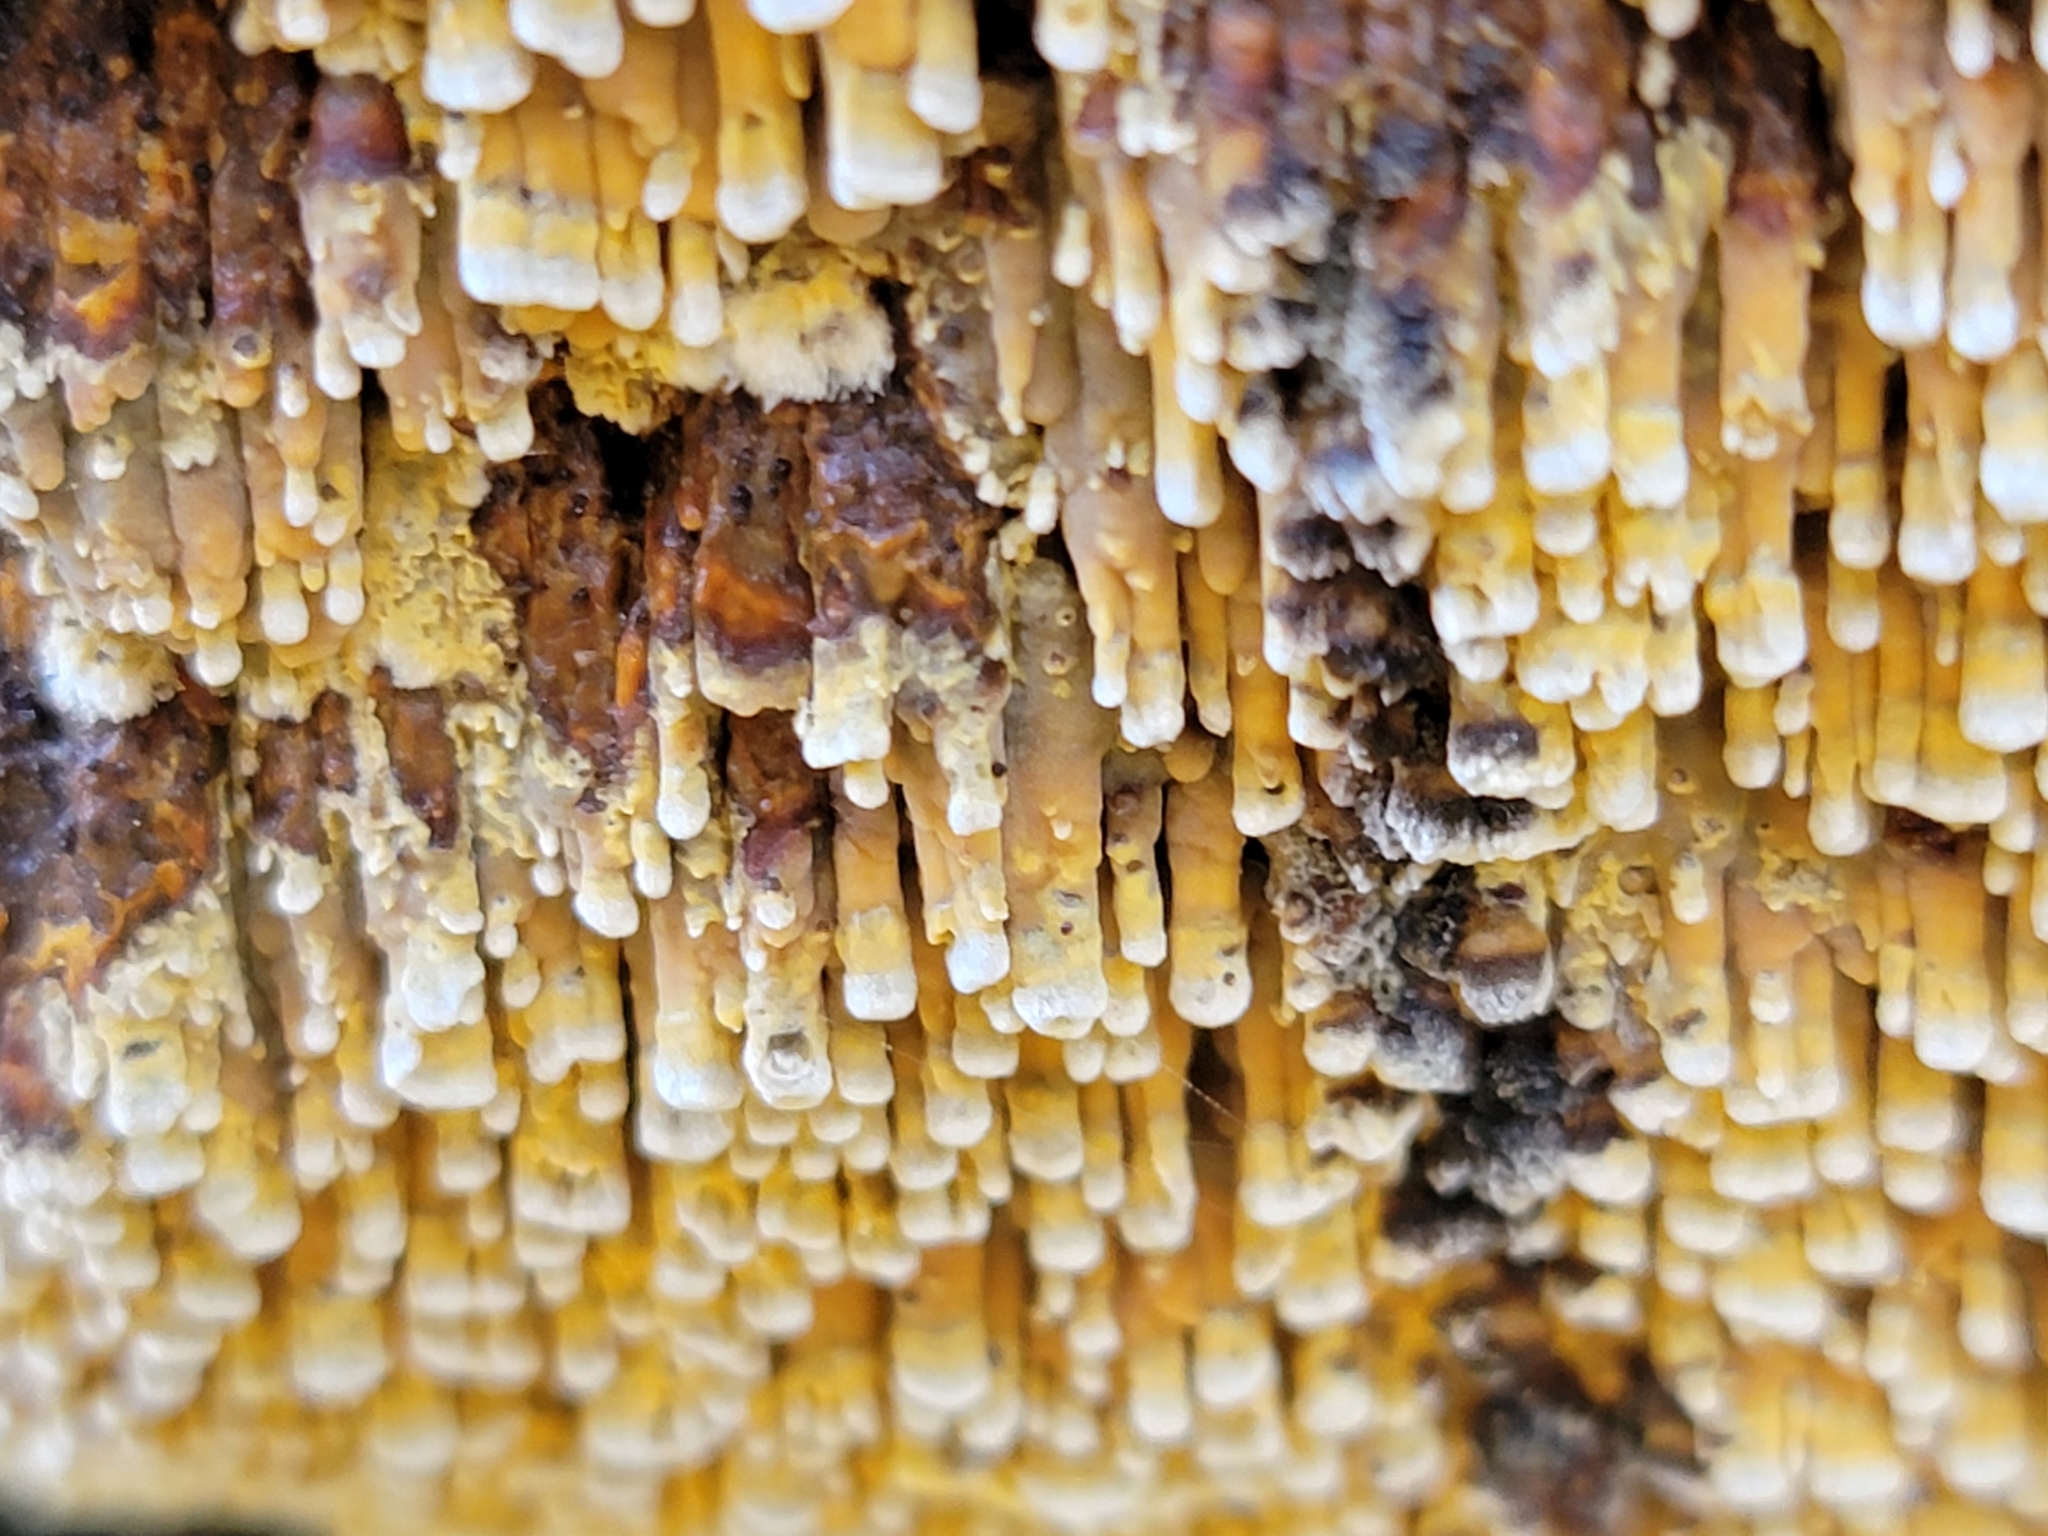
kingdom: Fungi
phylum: Basidiomycota
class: Agaricomycetes
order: Polyporales
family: Phanerochaetaceae
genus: Pirex
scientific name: Pirex concentricus
